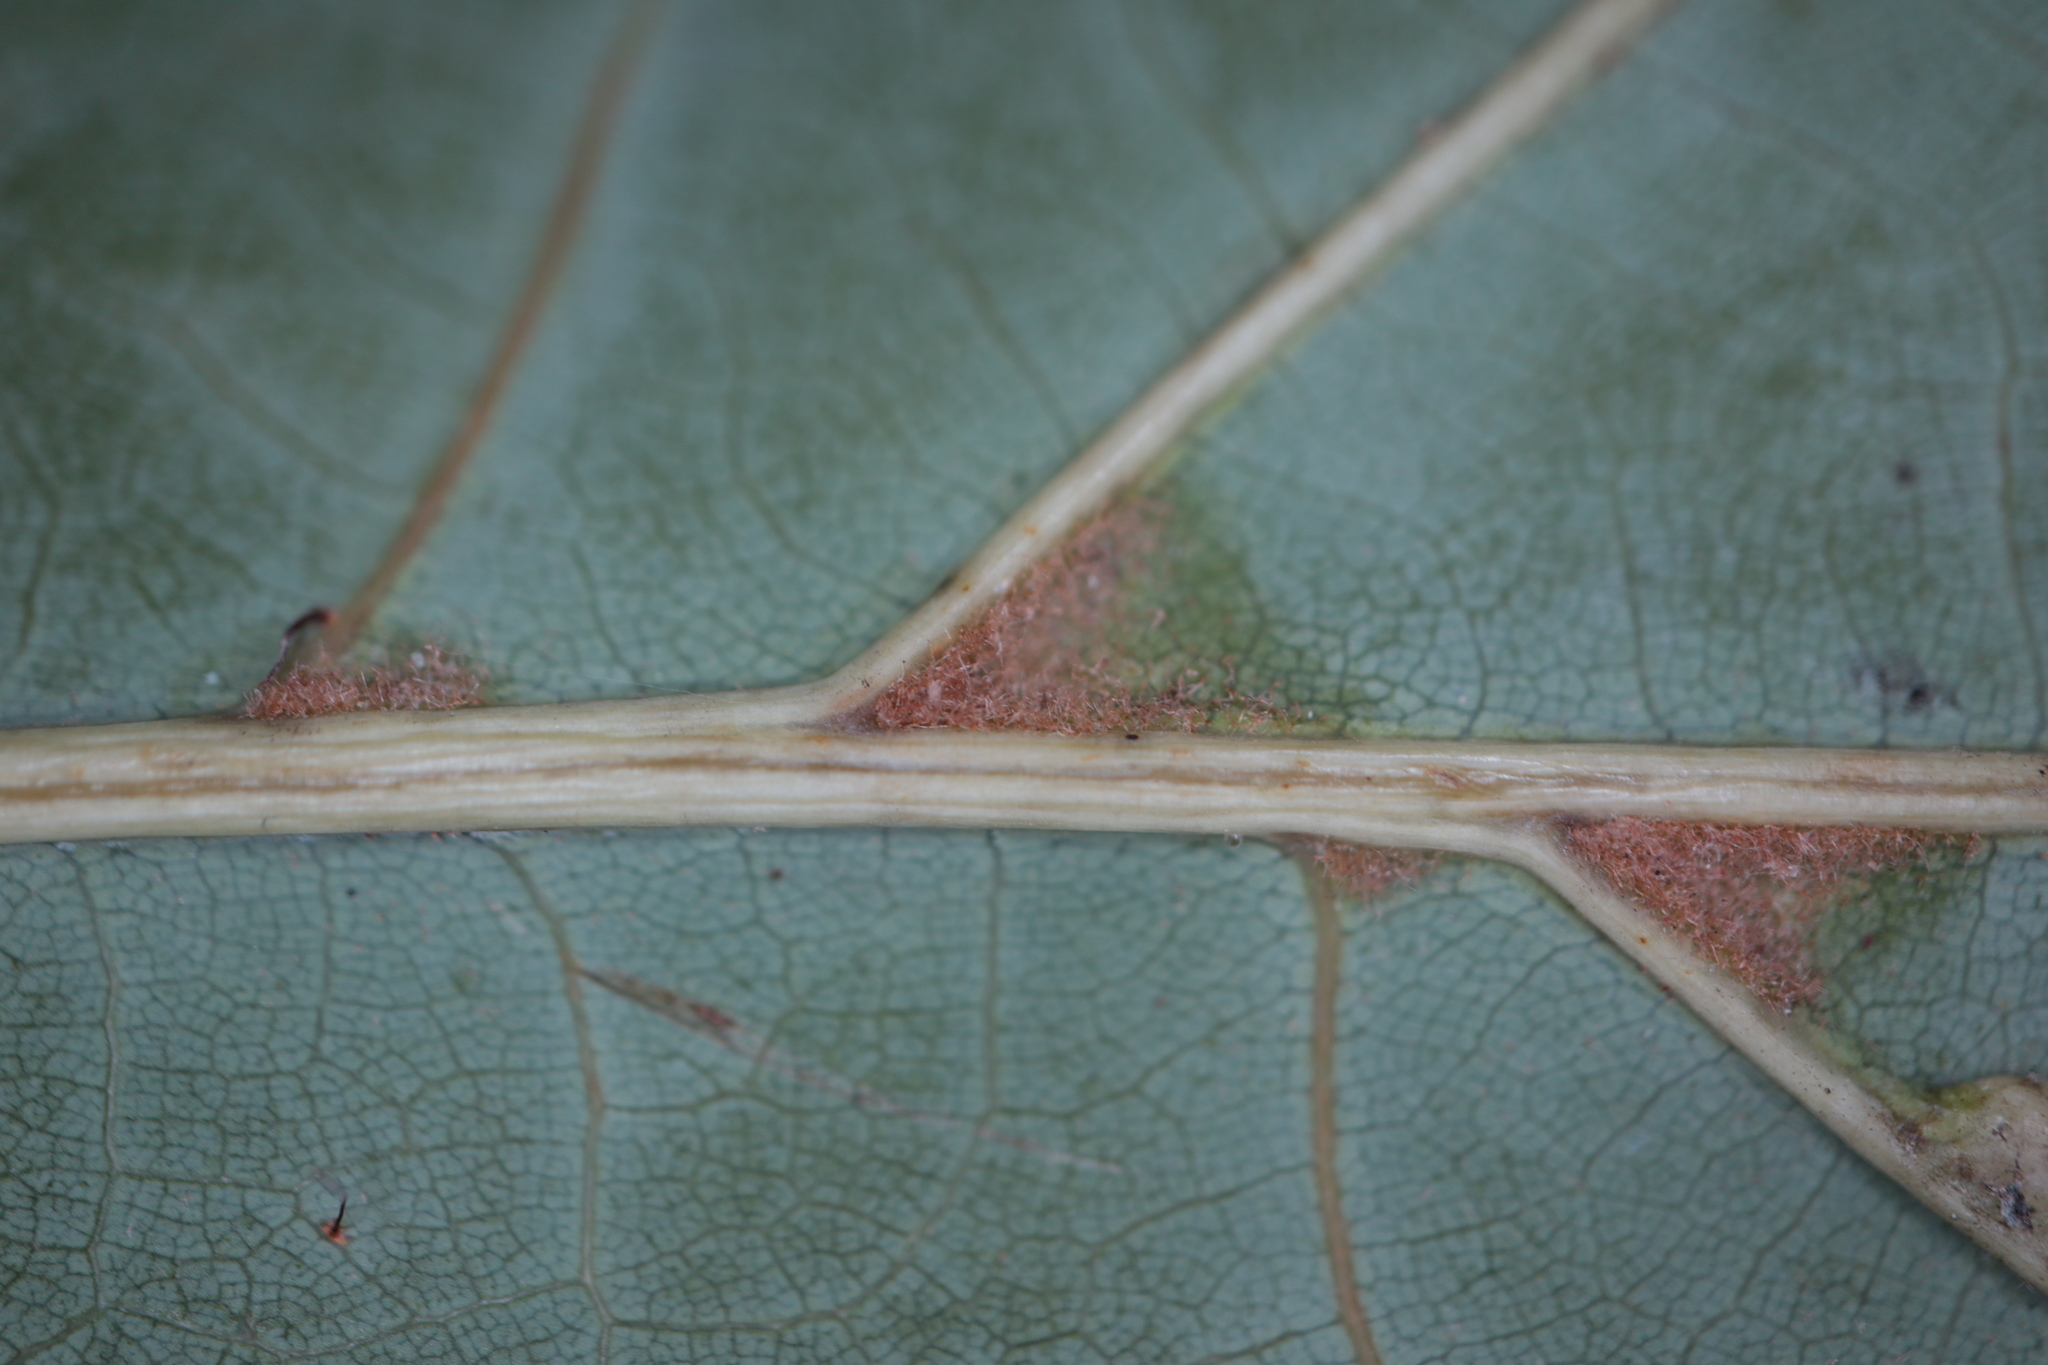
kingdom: Plantae
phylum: Tracheophyta
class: Magnoliopsida
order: Fagales
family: Fagaceae
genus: Quercus
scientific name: Quercus coccinea
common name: Scarlet oak
